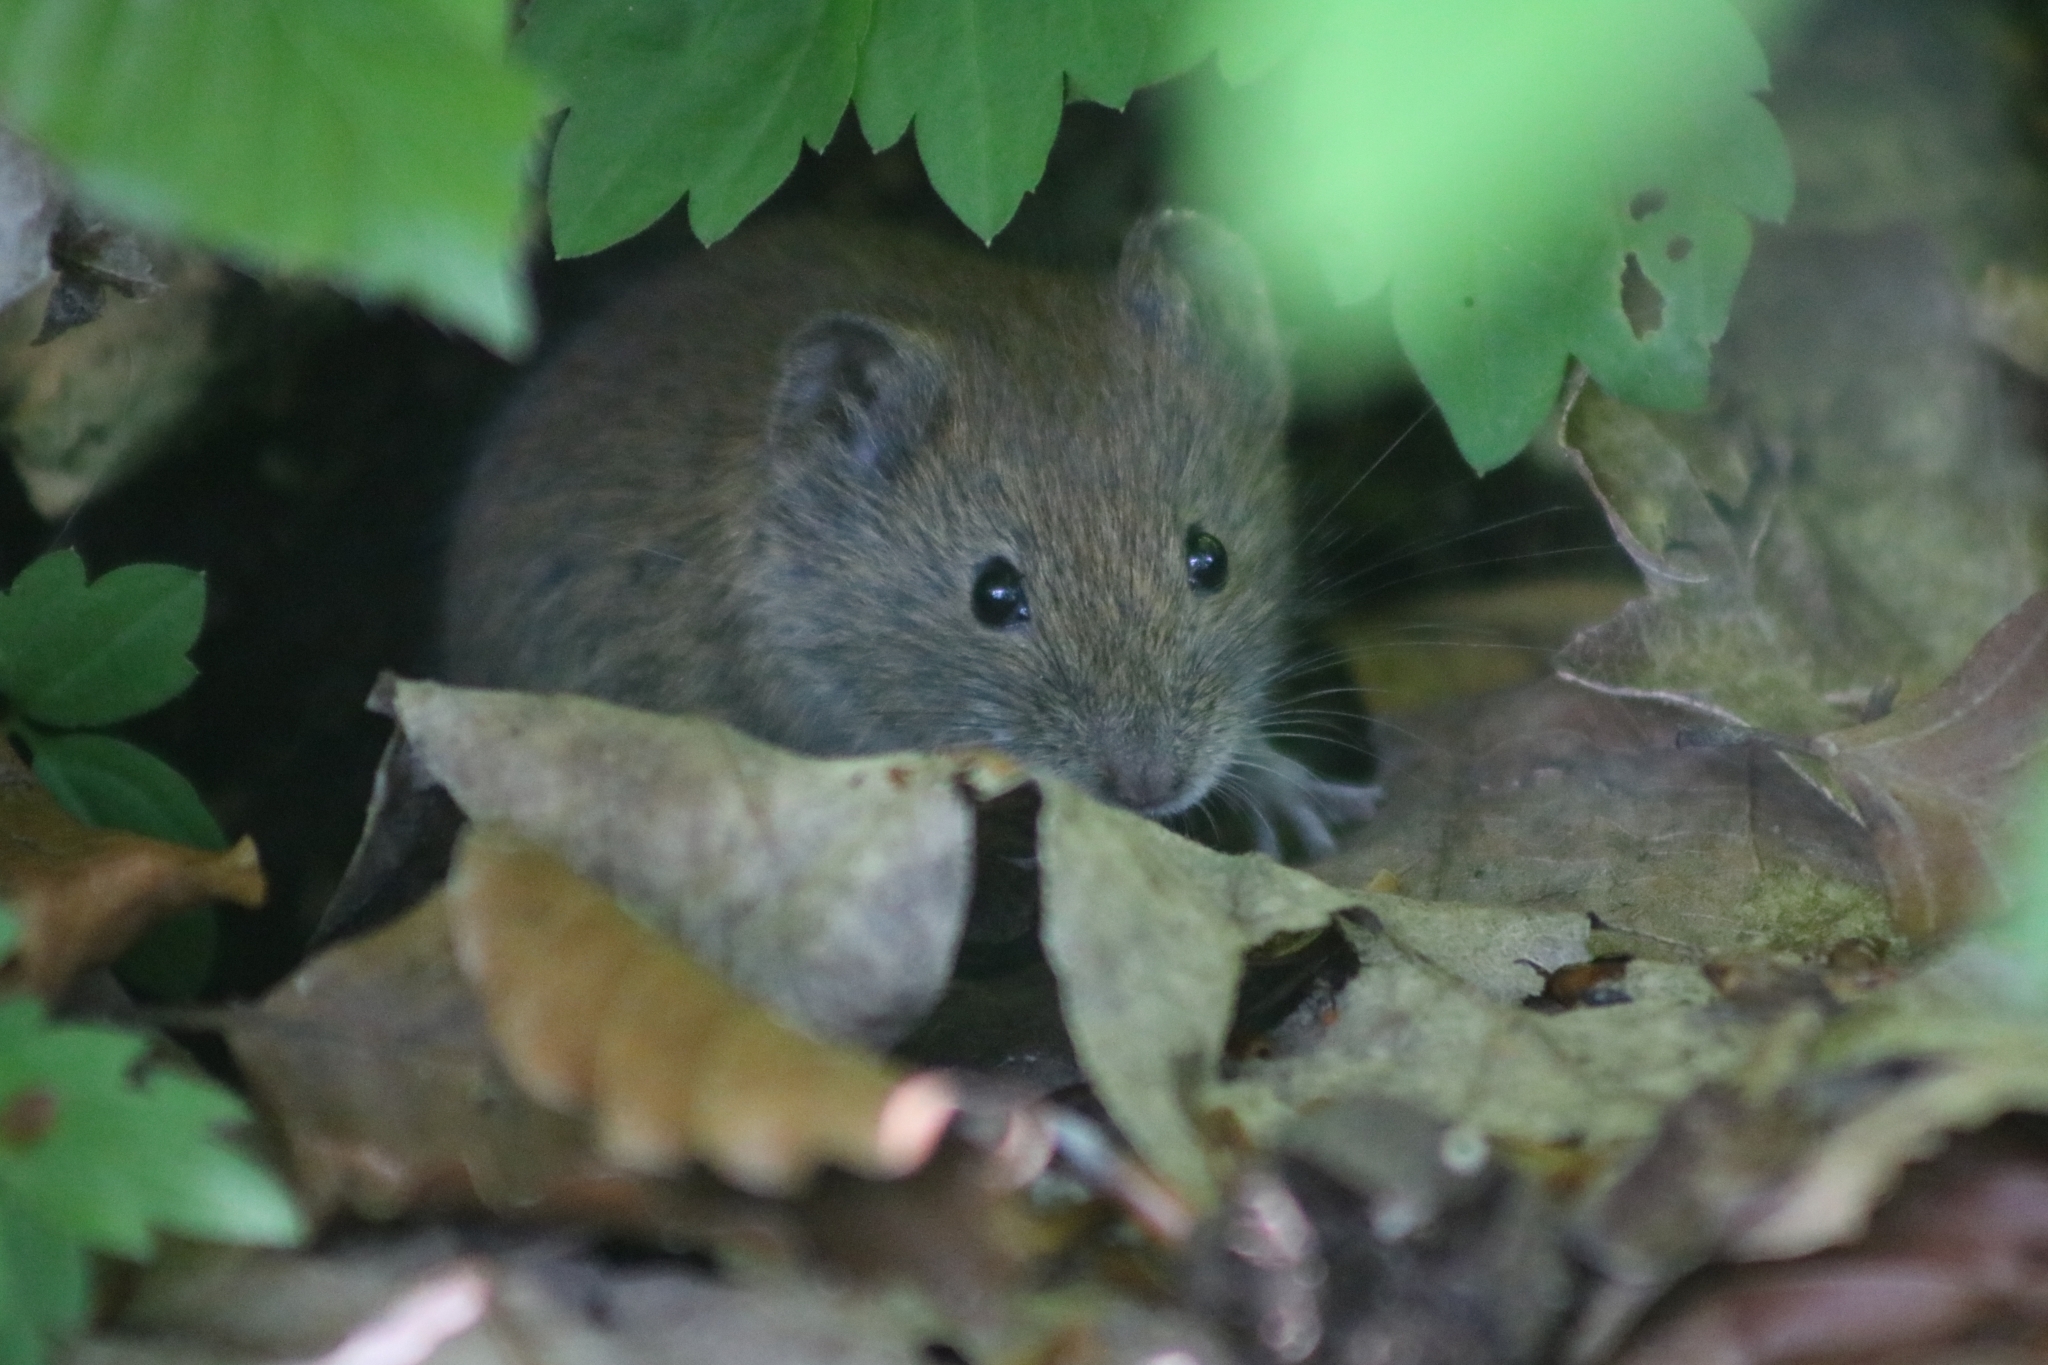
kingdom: Animalia
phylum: Chordata
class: Mammalia
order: Rodentia
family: Cricetidae
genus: Myodes
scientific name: Myodes glareolus
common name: Bank vole
